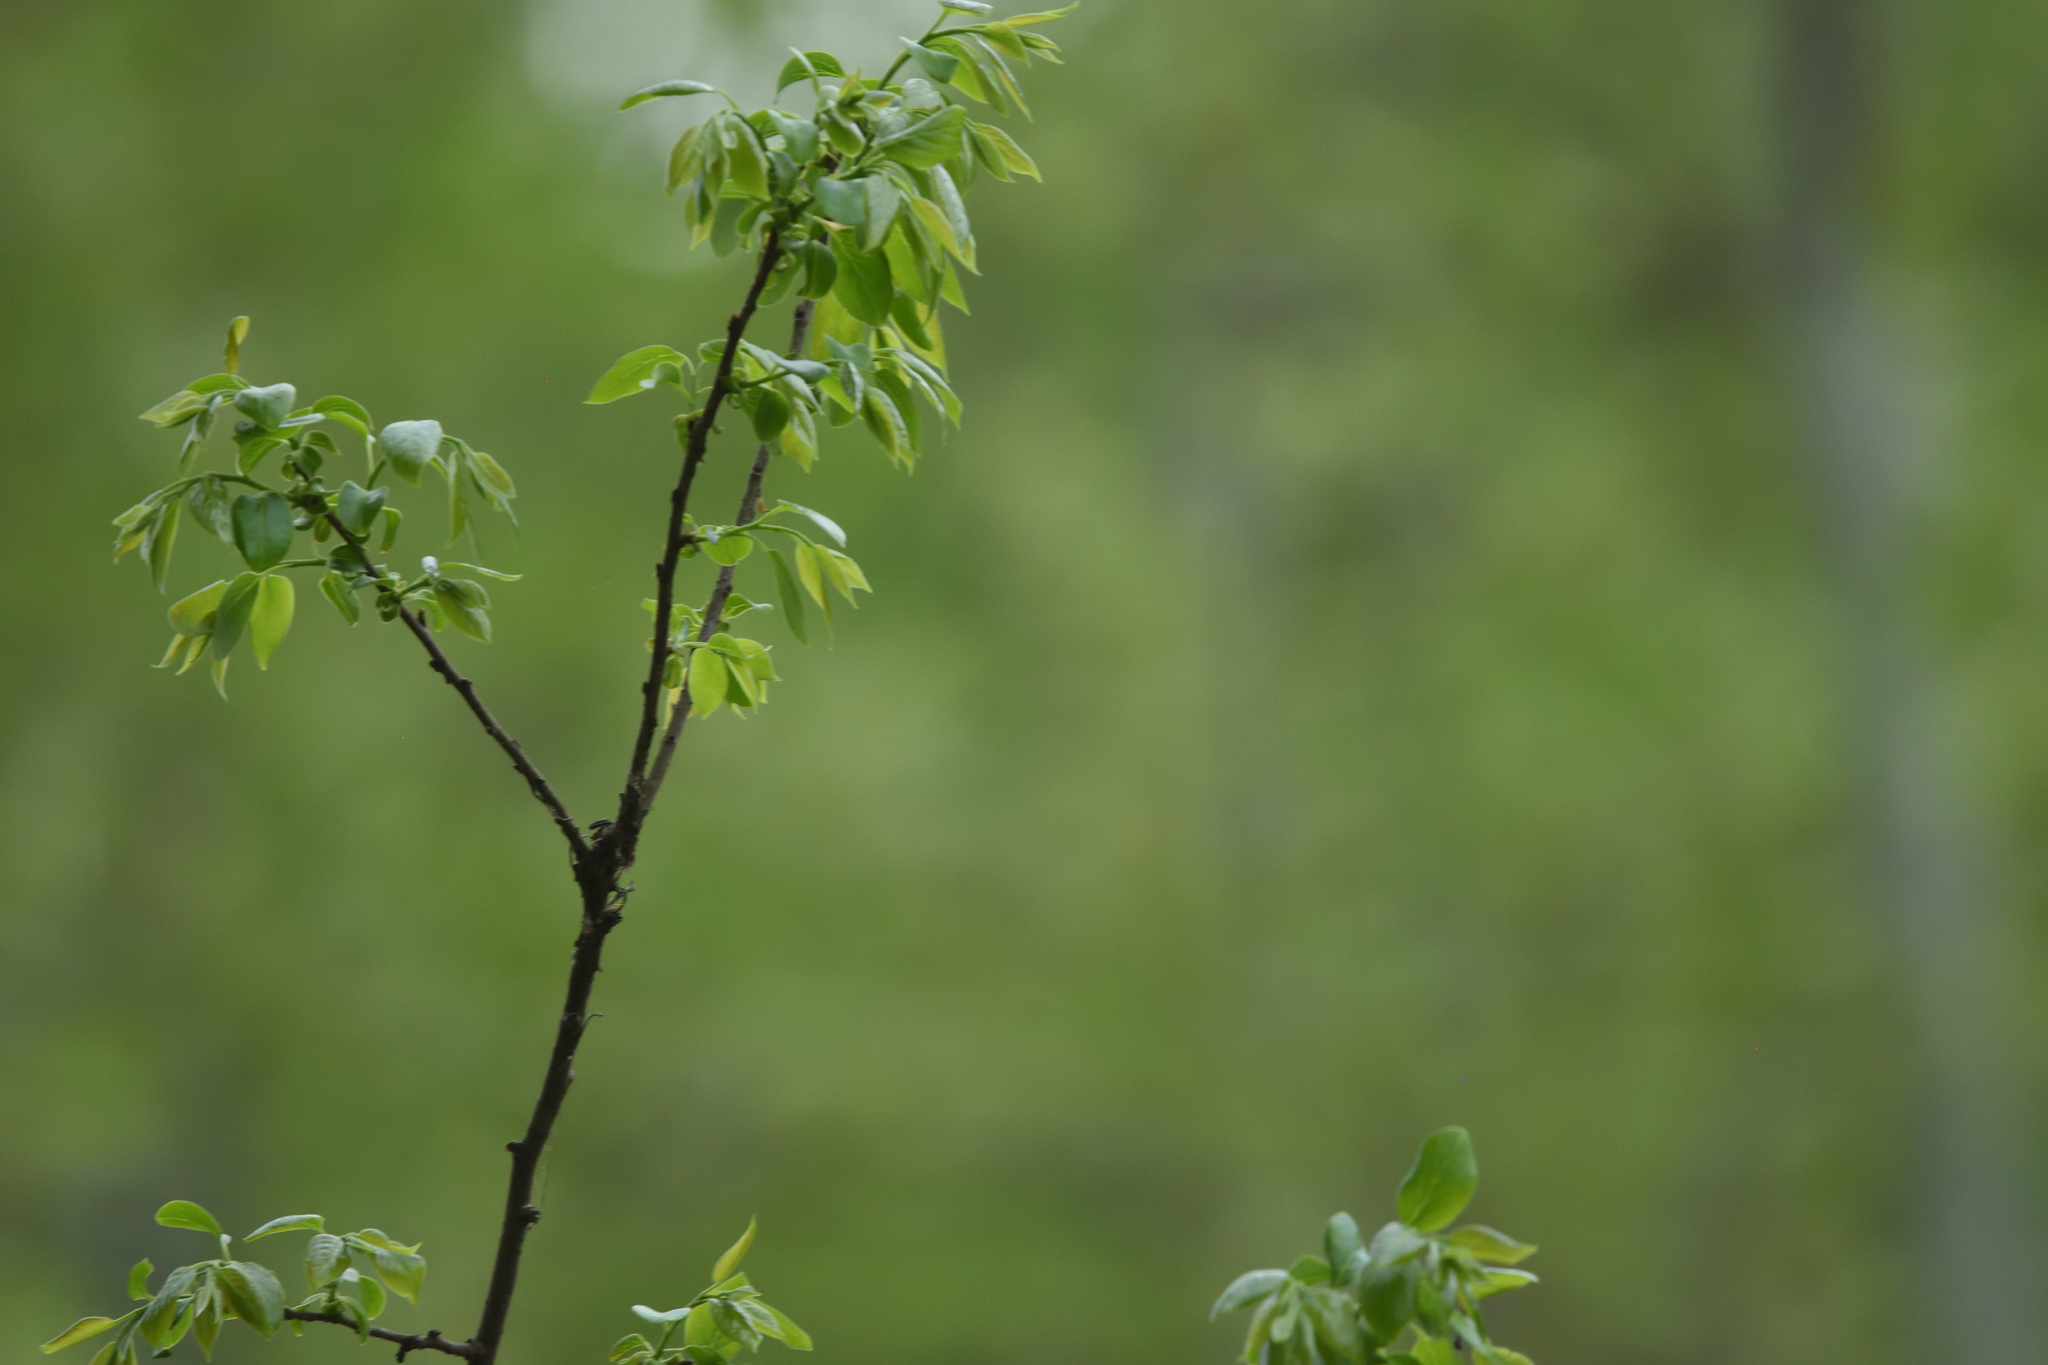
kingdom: Plantae
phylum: Tracheophyta
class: Magnoliopsida
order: Ericales
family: Ebenaceae
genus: Diospyros
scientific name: Diospyros virginiana
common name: Persimmon
